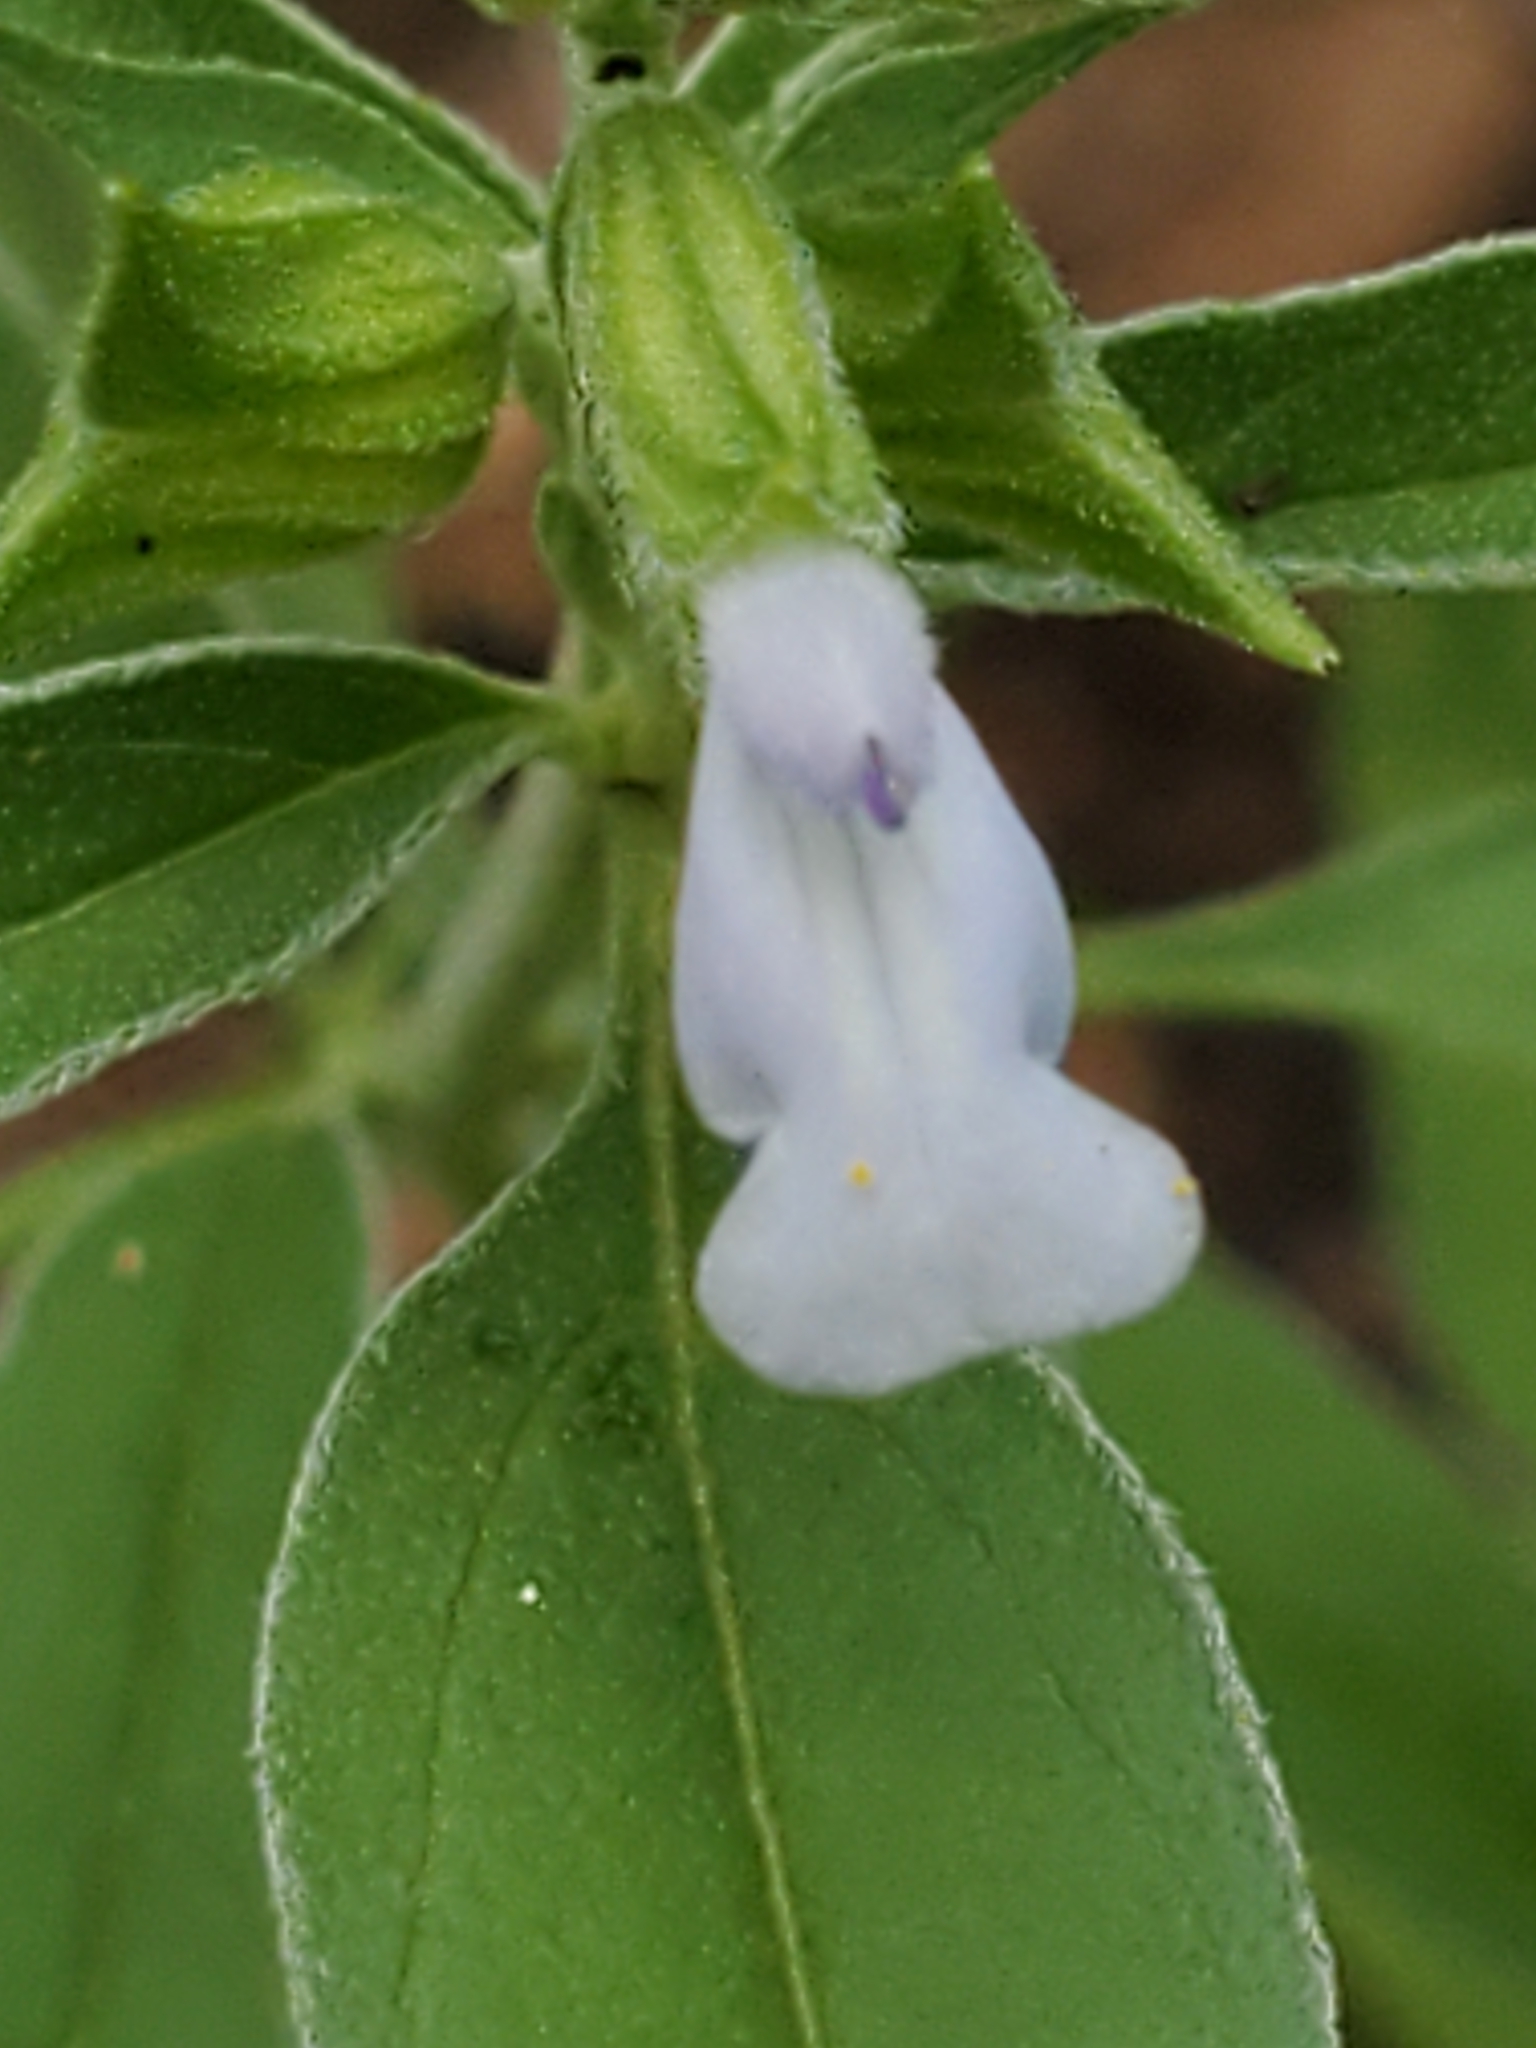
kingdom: Plantae
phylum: Tracheophyta
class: Magnoliopsida
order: Lamiales
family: Lamiaceae
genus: Salvia
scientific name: Salvia reflexa
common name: Mintweed
